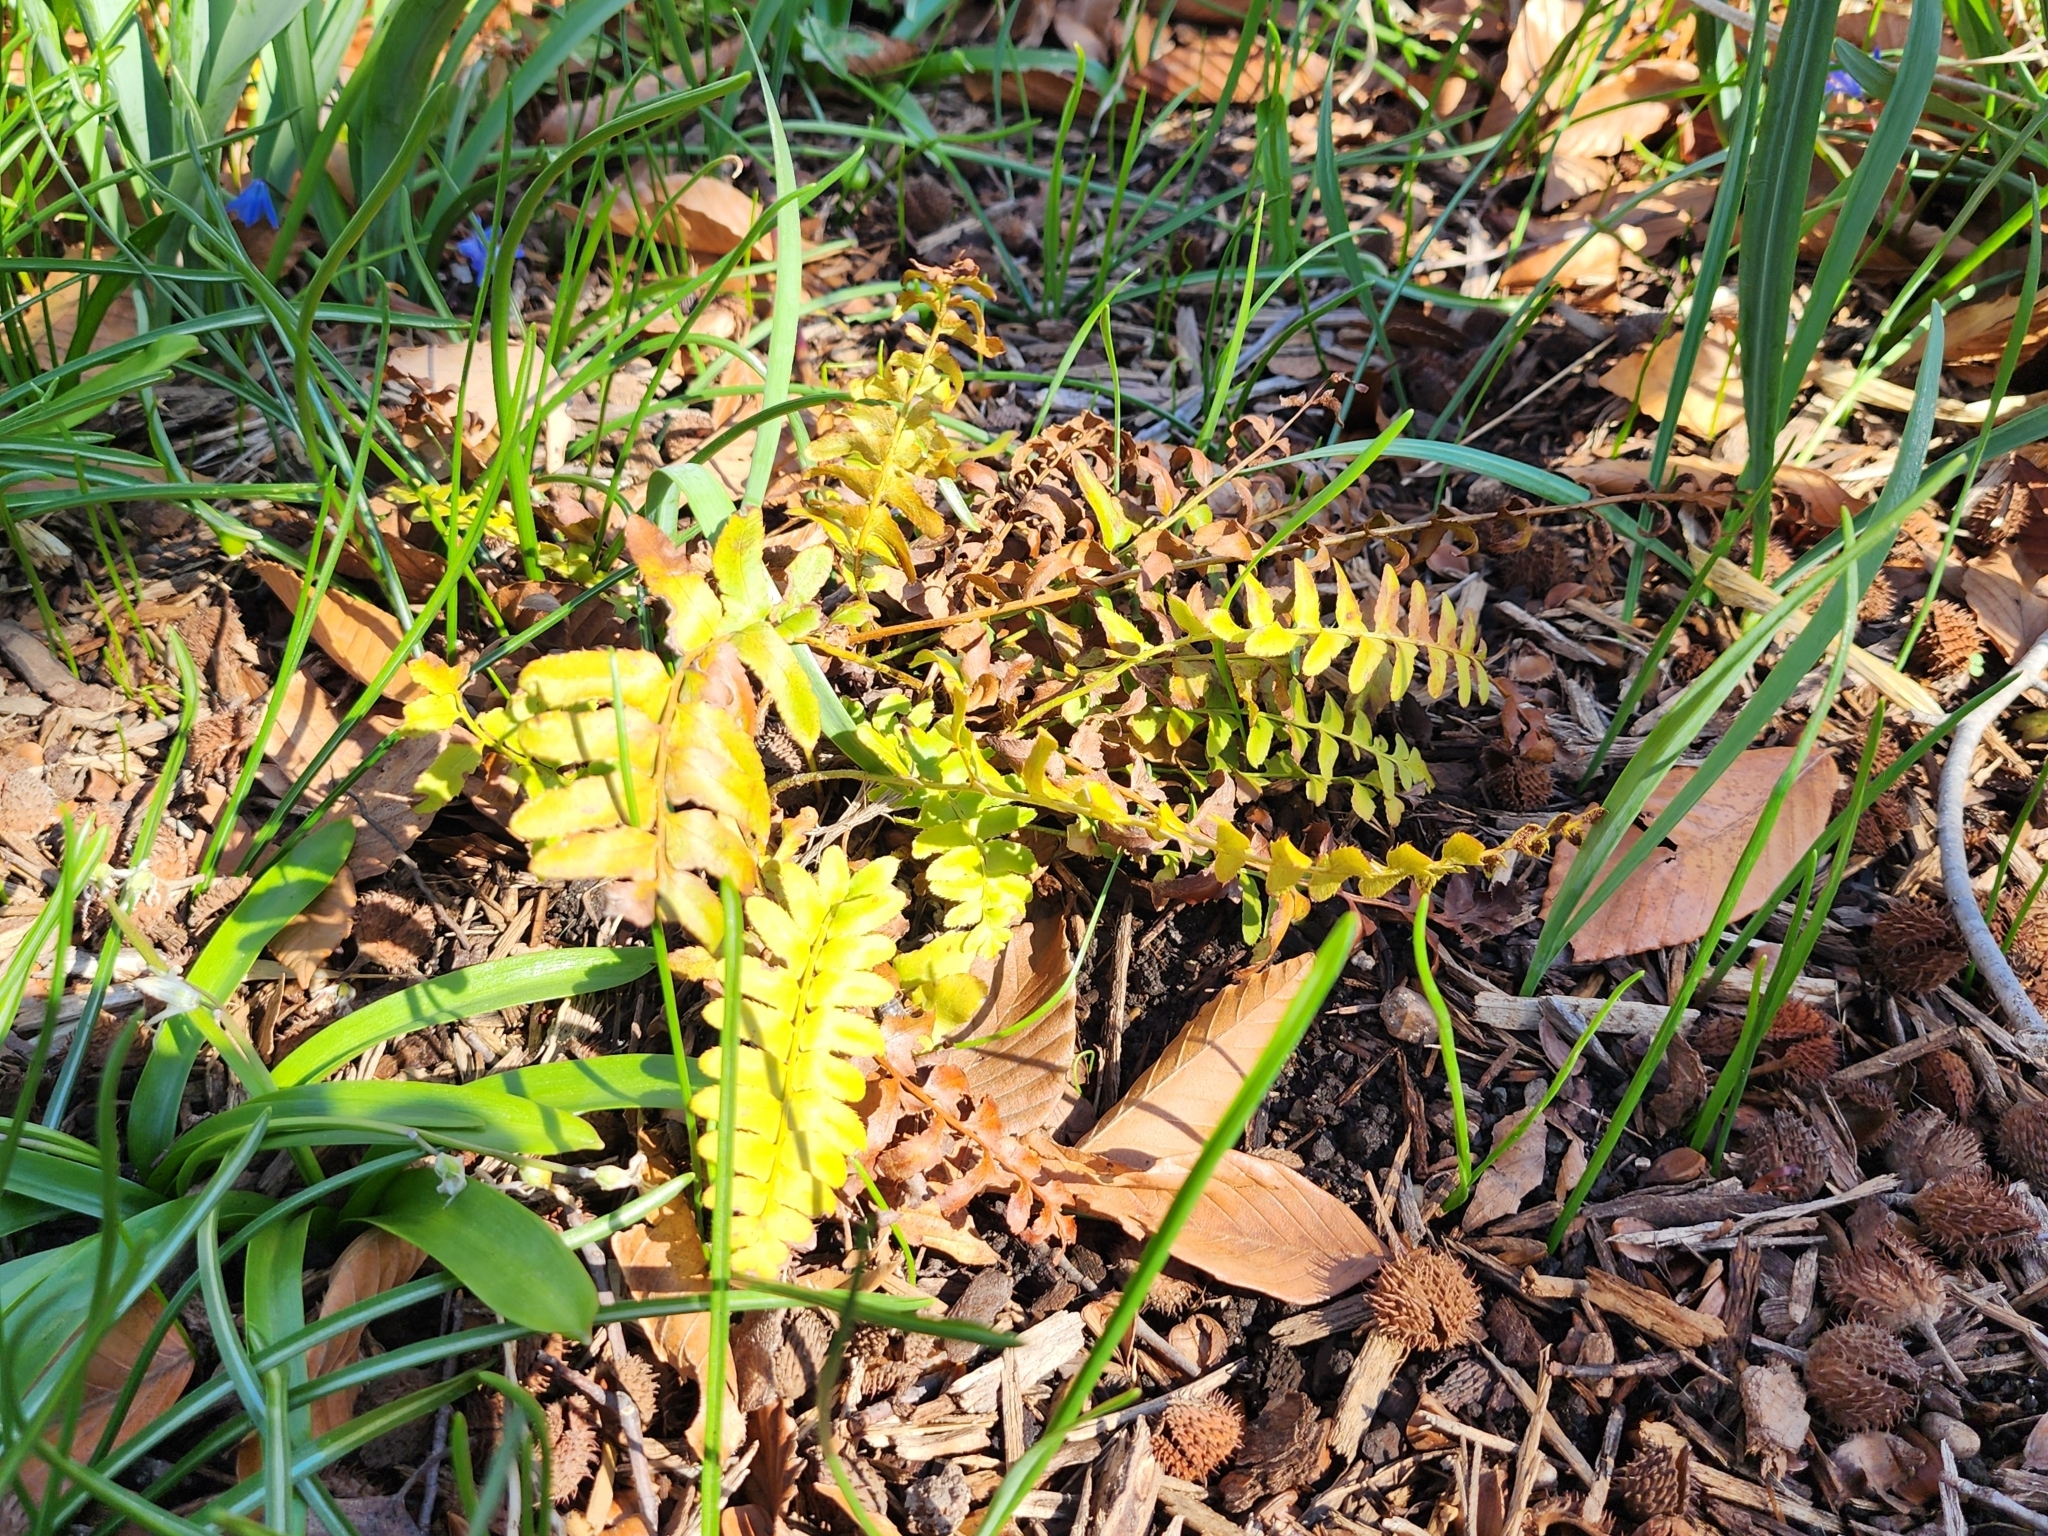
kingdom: Plantae
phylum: Tracheophyta
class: Polypodiopsida
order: Polypodiales
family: Dryopteridaceae
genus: Polystichum
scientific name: Polystichum acrostichoides
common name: Christmas fern
